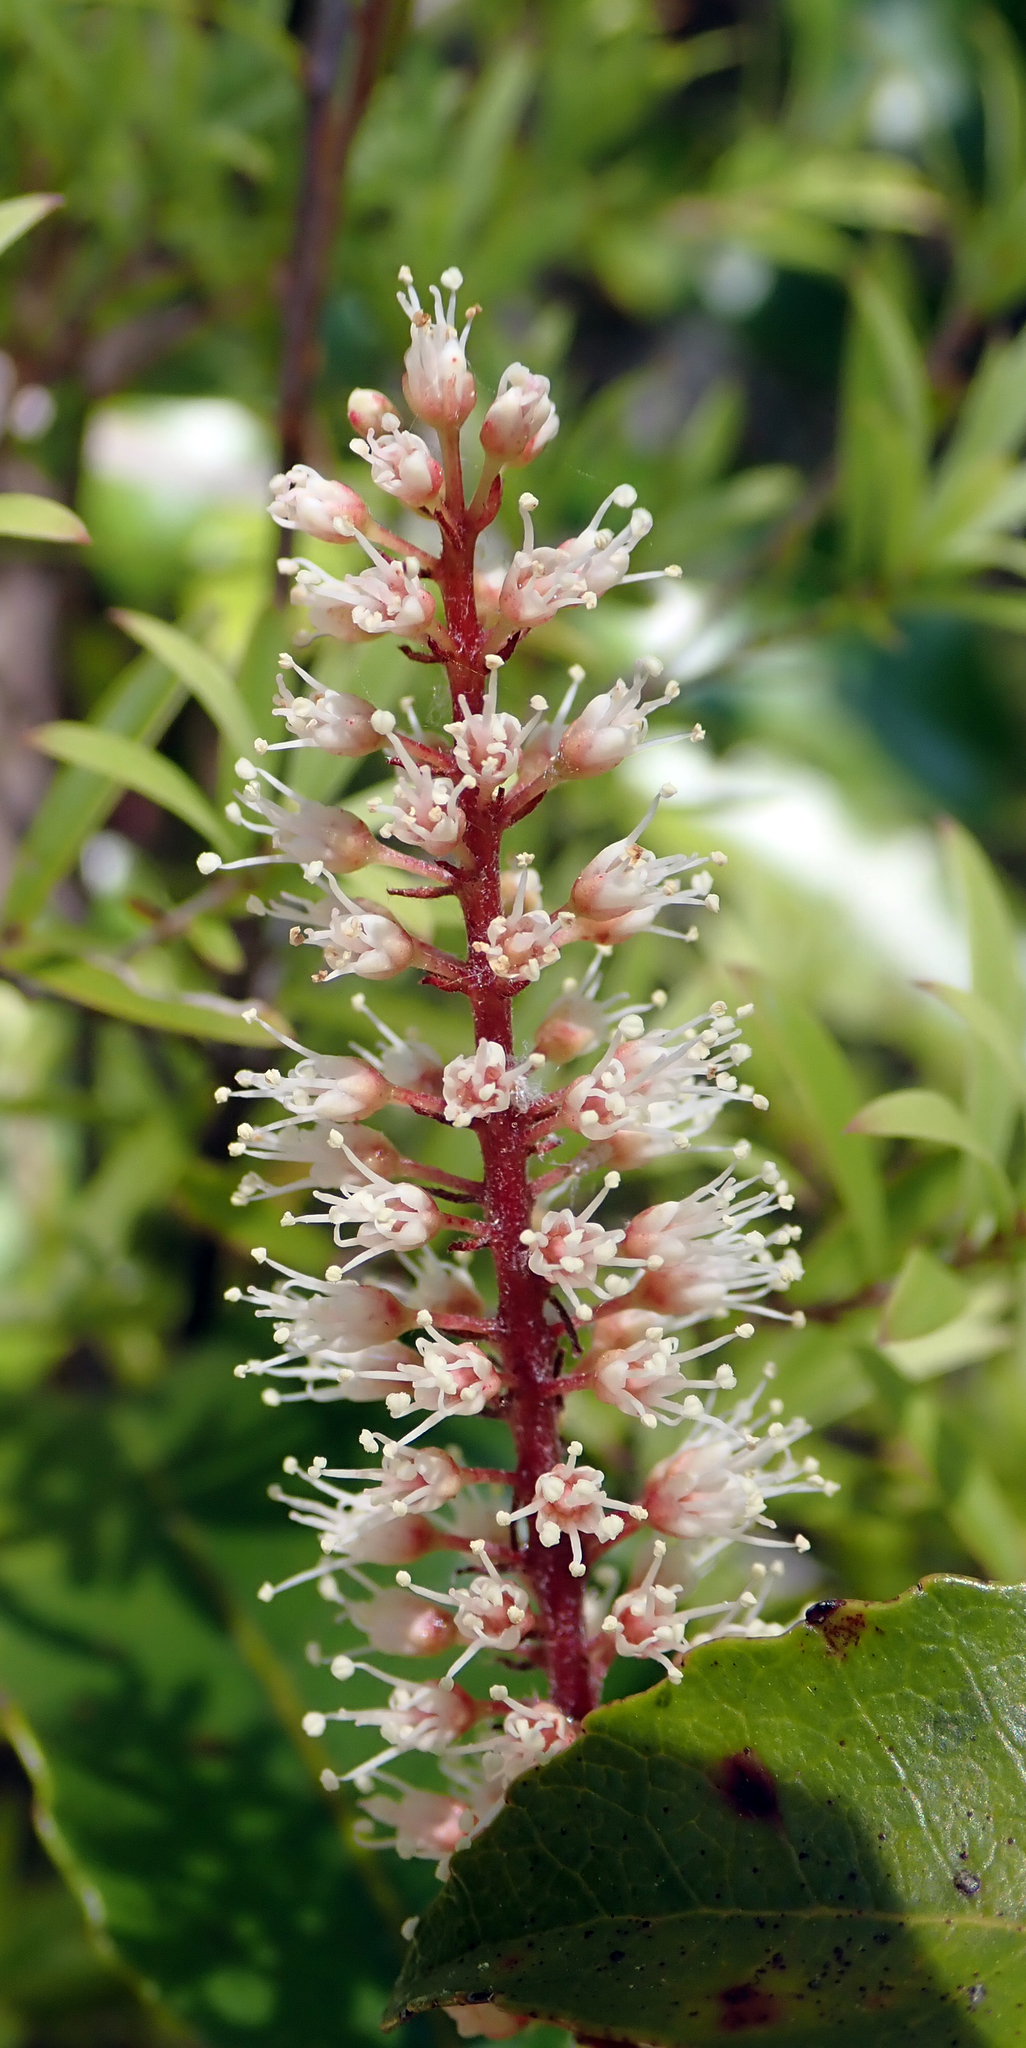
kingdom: Plantae
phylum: Tracheophyta
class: Magnoliopsida
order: Oxalidales
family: Cunoniaceae
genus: Pterophylla
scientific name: Pterophylla racemosa
